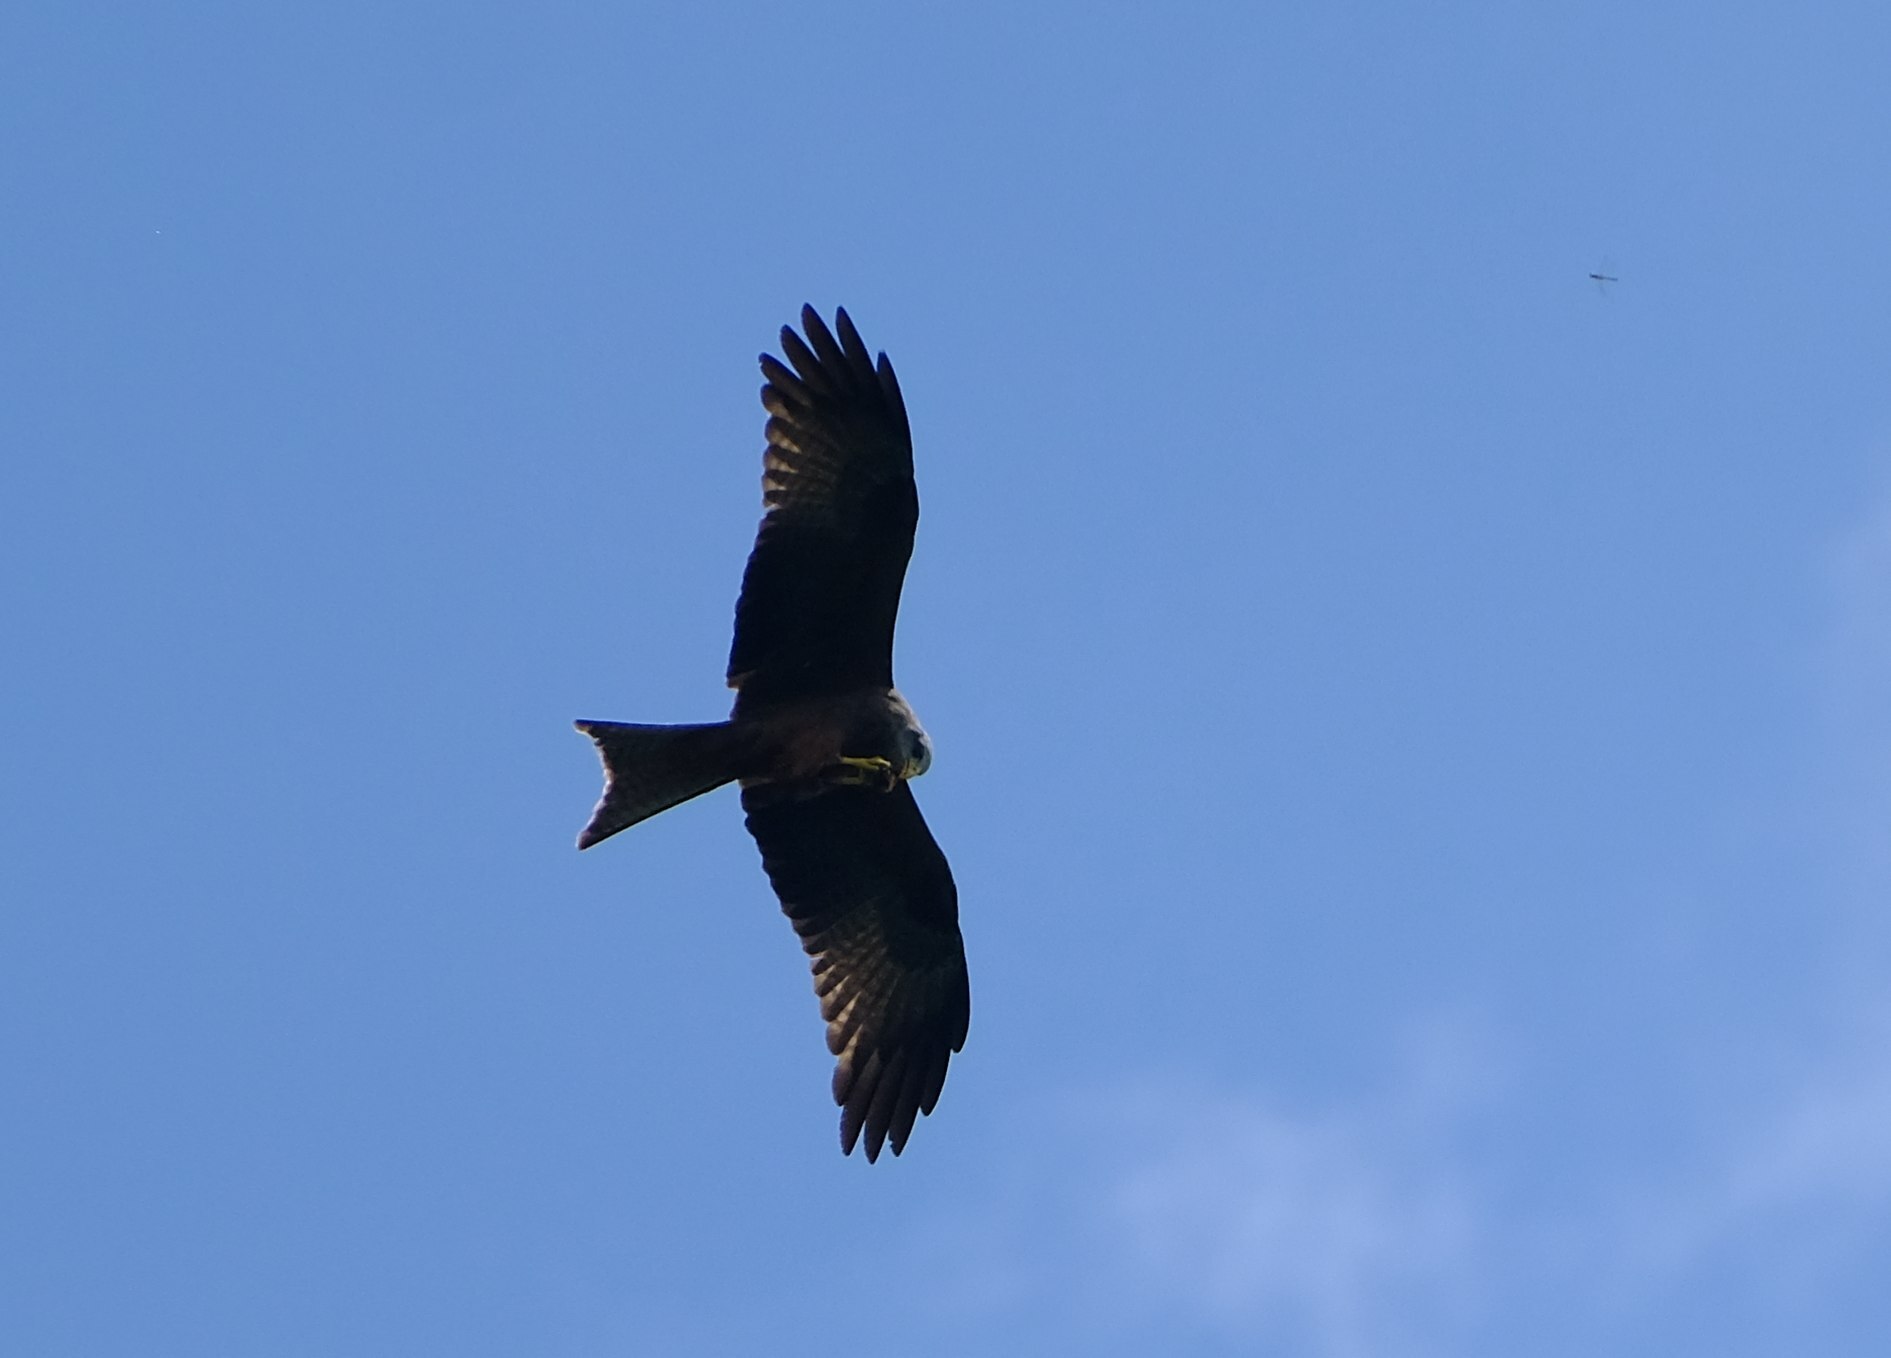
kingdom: Animalia
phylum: Chordata
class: Aves
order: Accipitriformes
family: Accipitridae
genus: Milvus
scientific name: Milvus migrans
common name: Black kite
